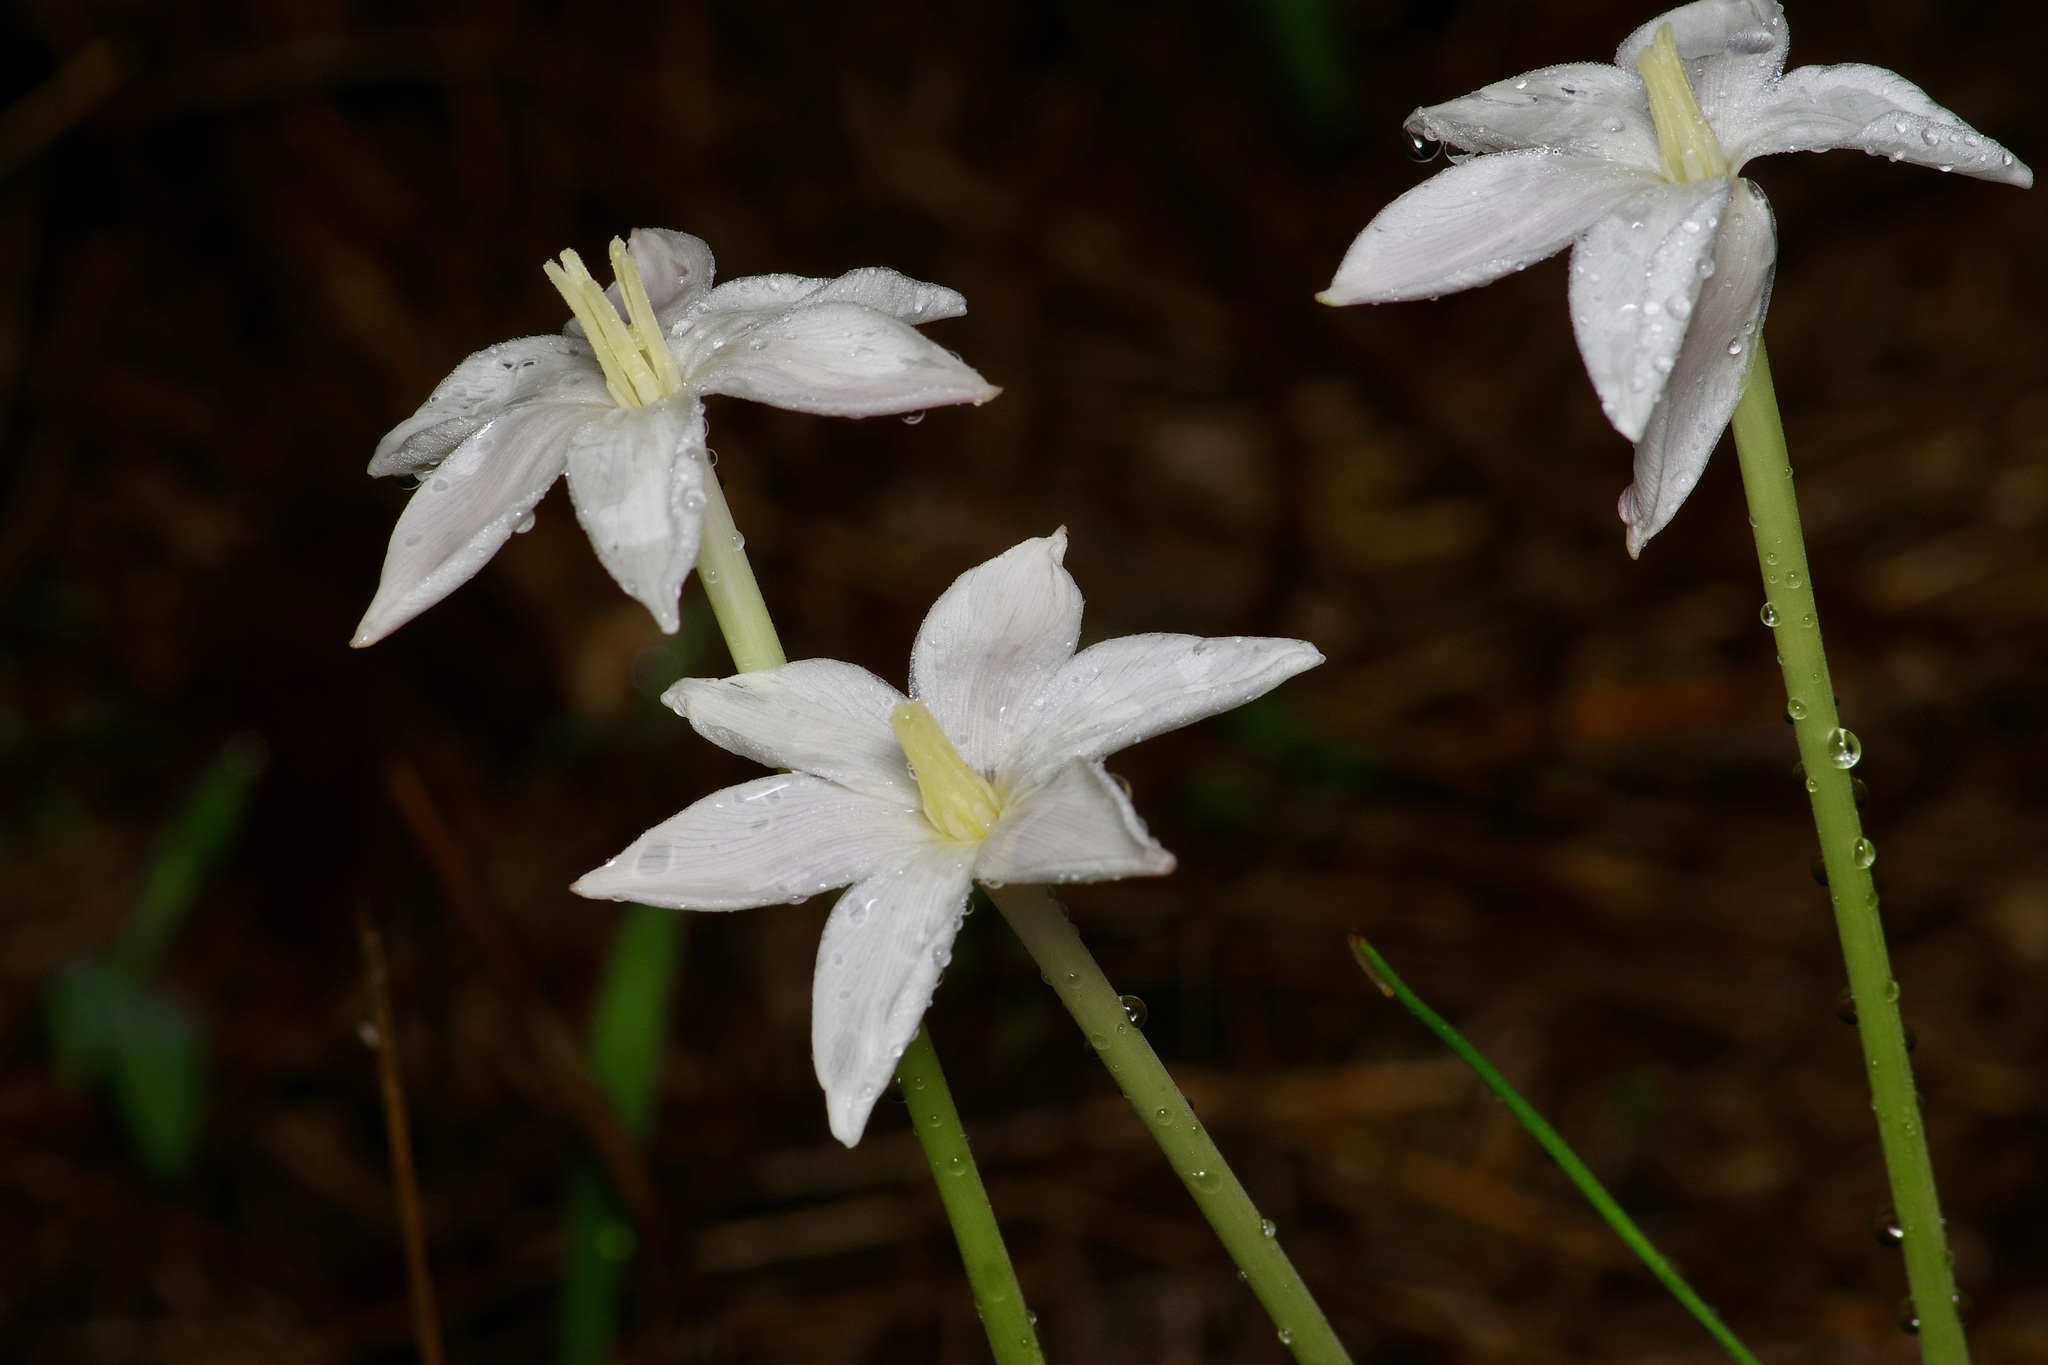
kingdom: Plantae
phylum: Tracheophyta
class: Liliopsida
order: Asparagales
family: Amaryllidaceae
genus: Zephyranthes
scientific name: Zephyranthes chlorosolen
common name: Evening rain-lily
